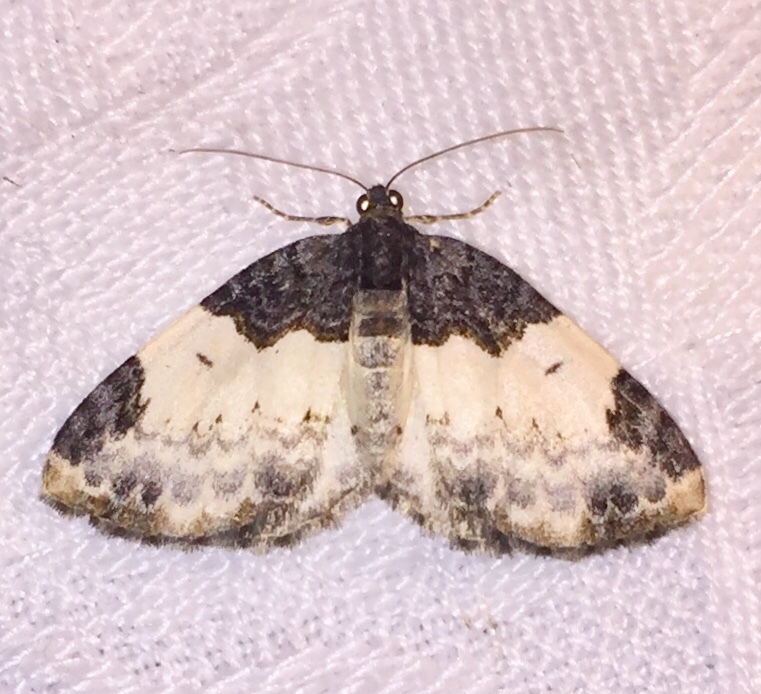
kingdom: Animalia
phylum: Arthropoda
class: Insecta
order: Lepidoptera
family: Geometridae
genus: Mesoleuca
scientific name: Mesoleuca ruficillata
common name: White-ribboned carpet moth
